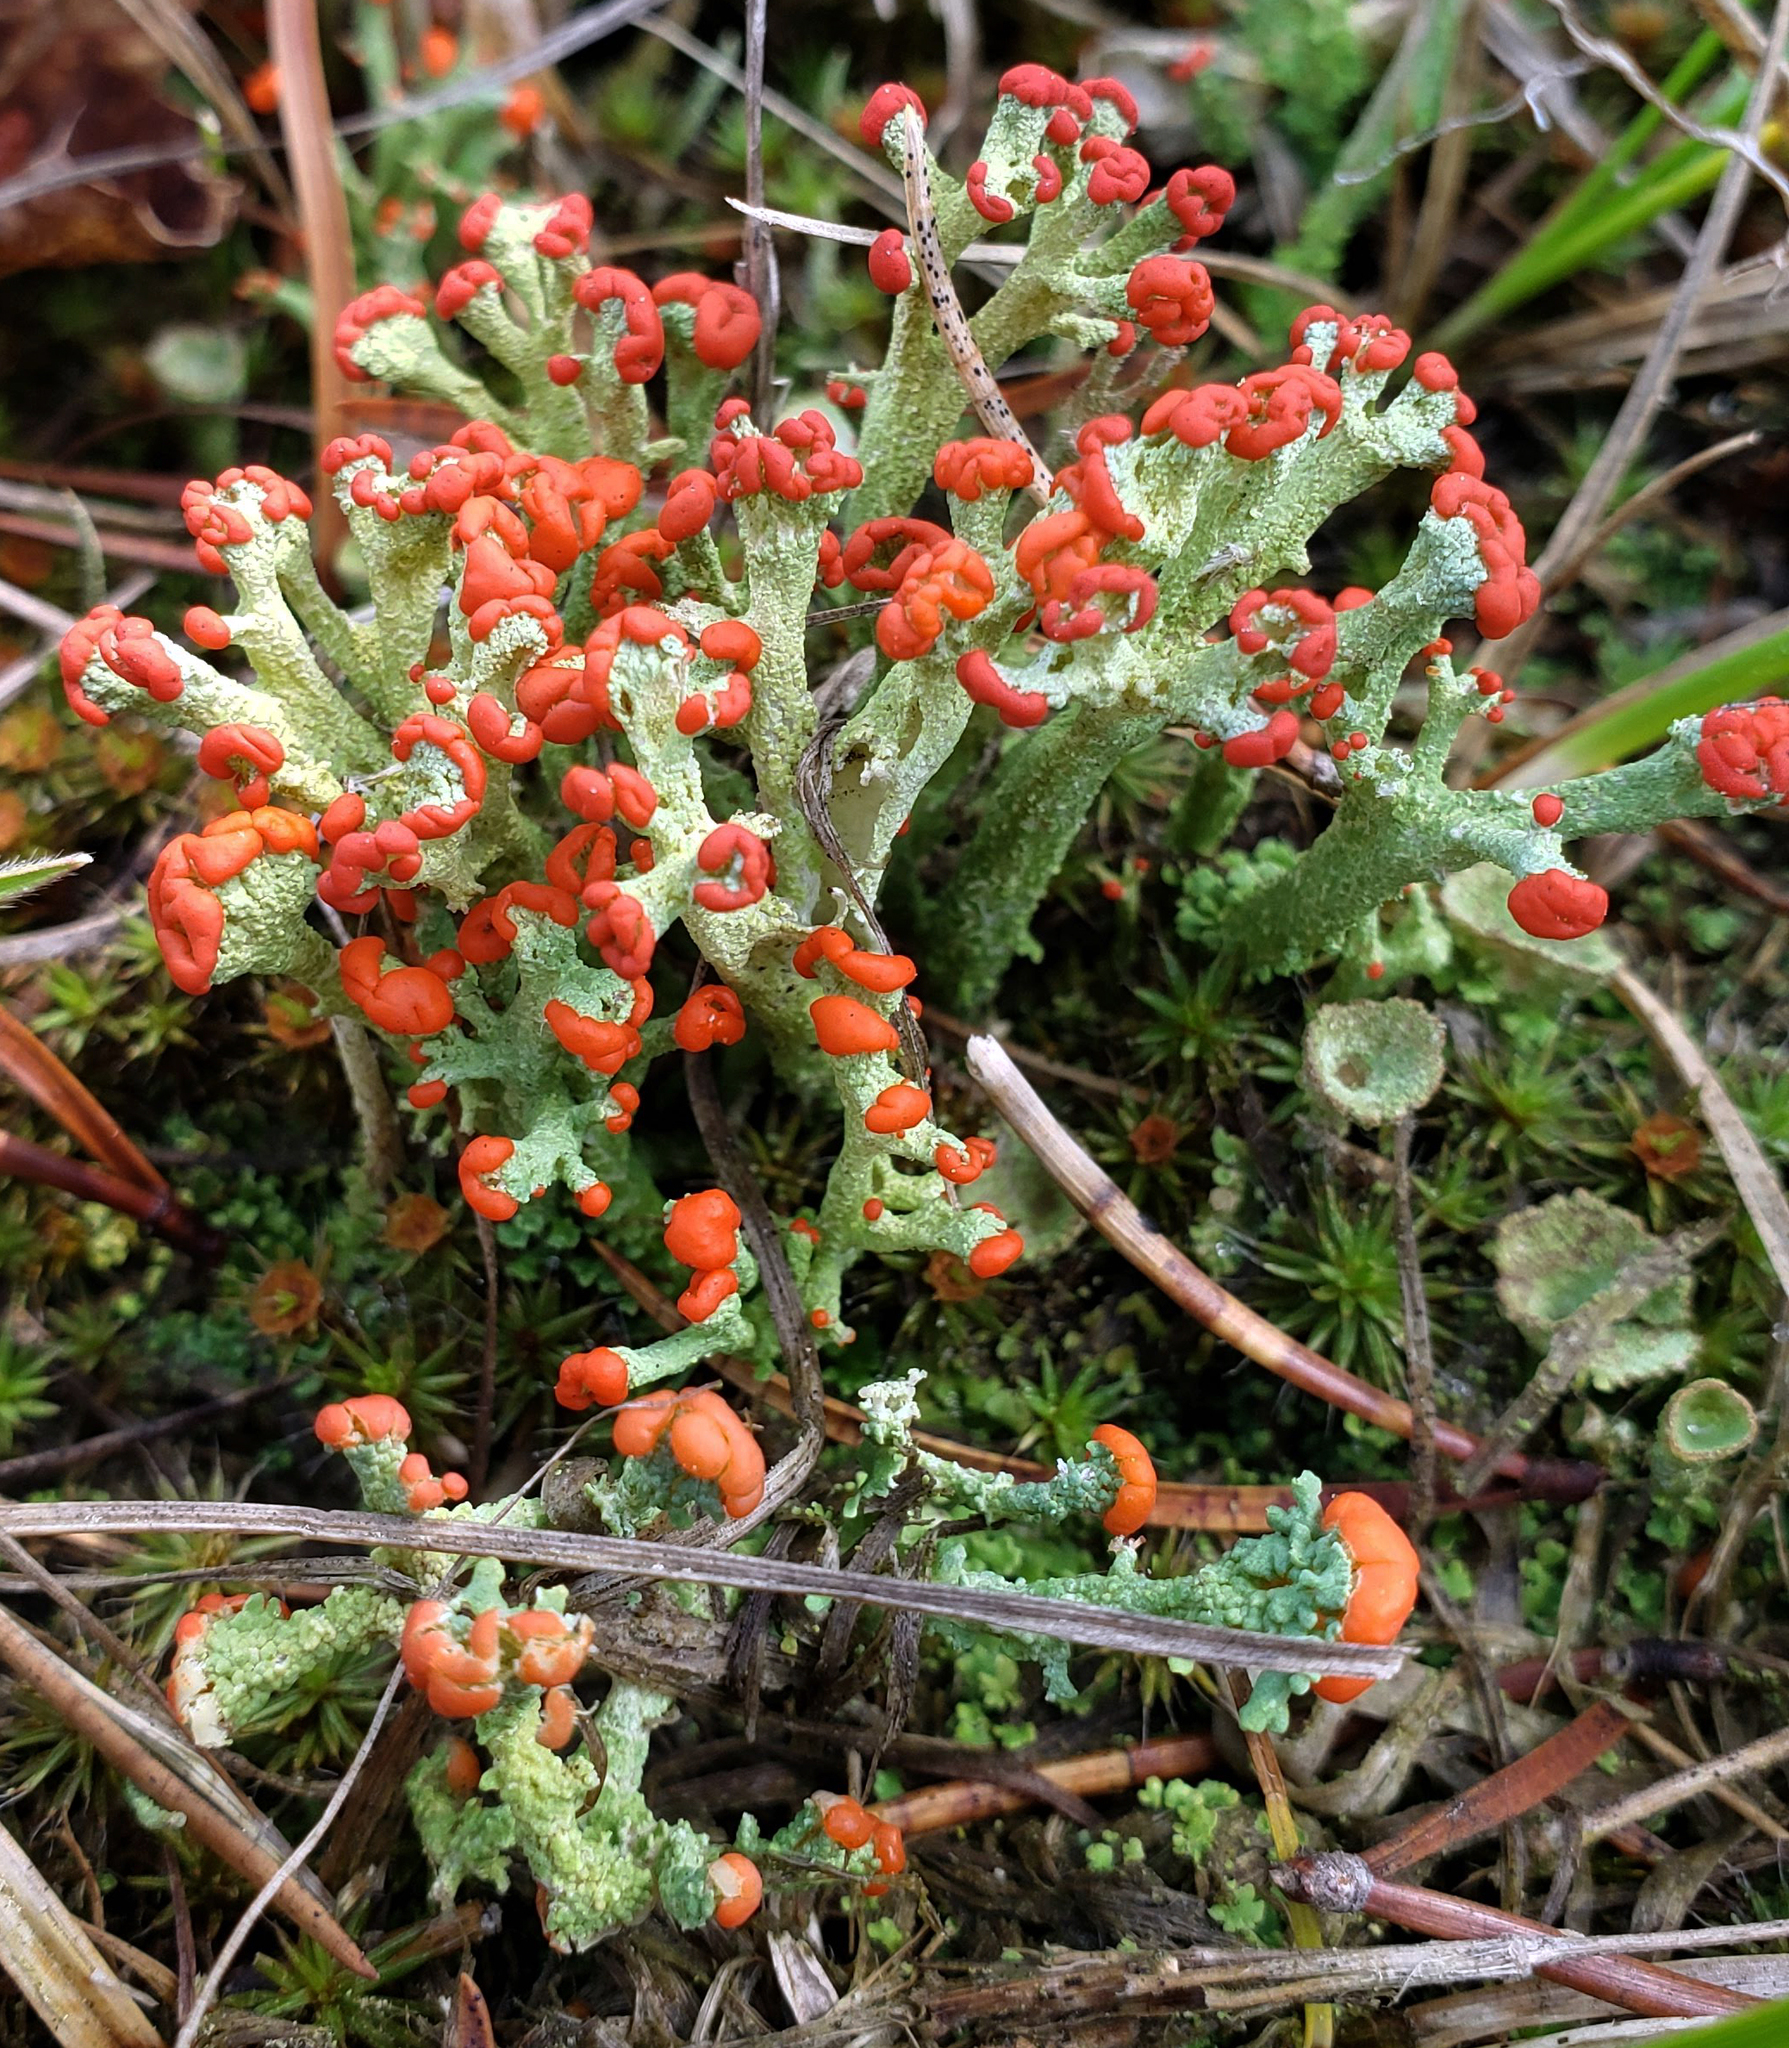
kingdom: Fungi
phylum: Ascomycota
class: Lecanoromycetes
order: Lecanorales
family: Cladoniaceae
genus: Cladonia
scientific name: Cladonia cristatella
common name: British soldier lichen
